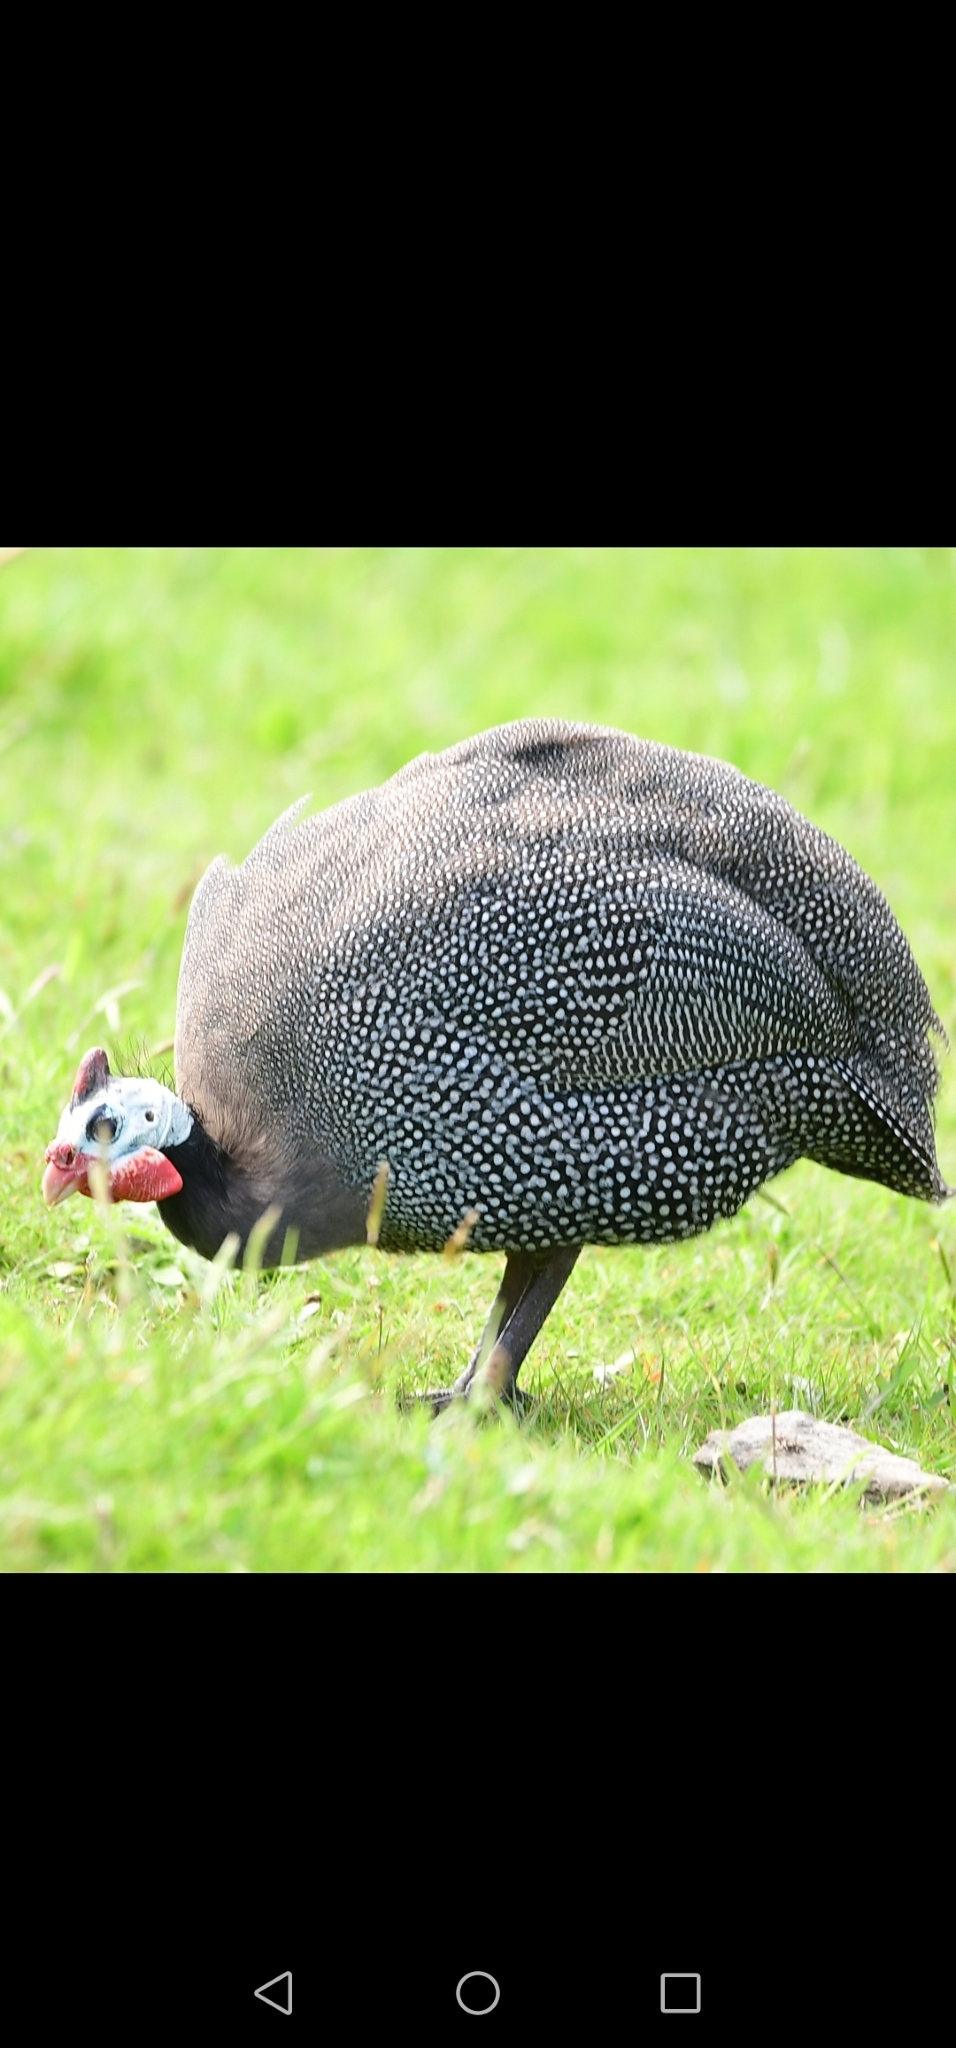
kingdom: Animalia
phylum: Chordata
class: Aves
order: Galliformes
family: Numididae
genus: Numida
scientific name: Numida meleagris
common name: Helmeted guineafowl
